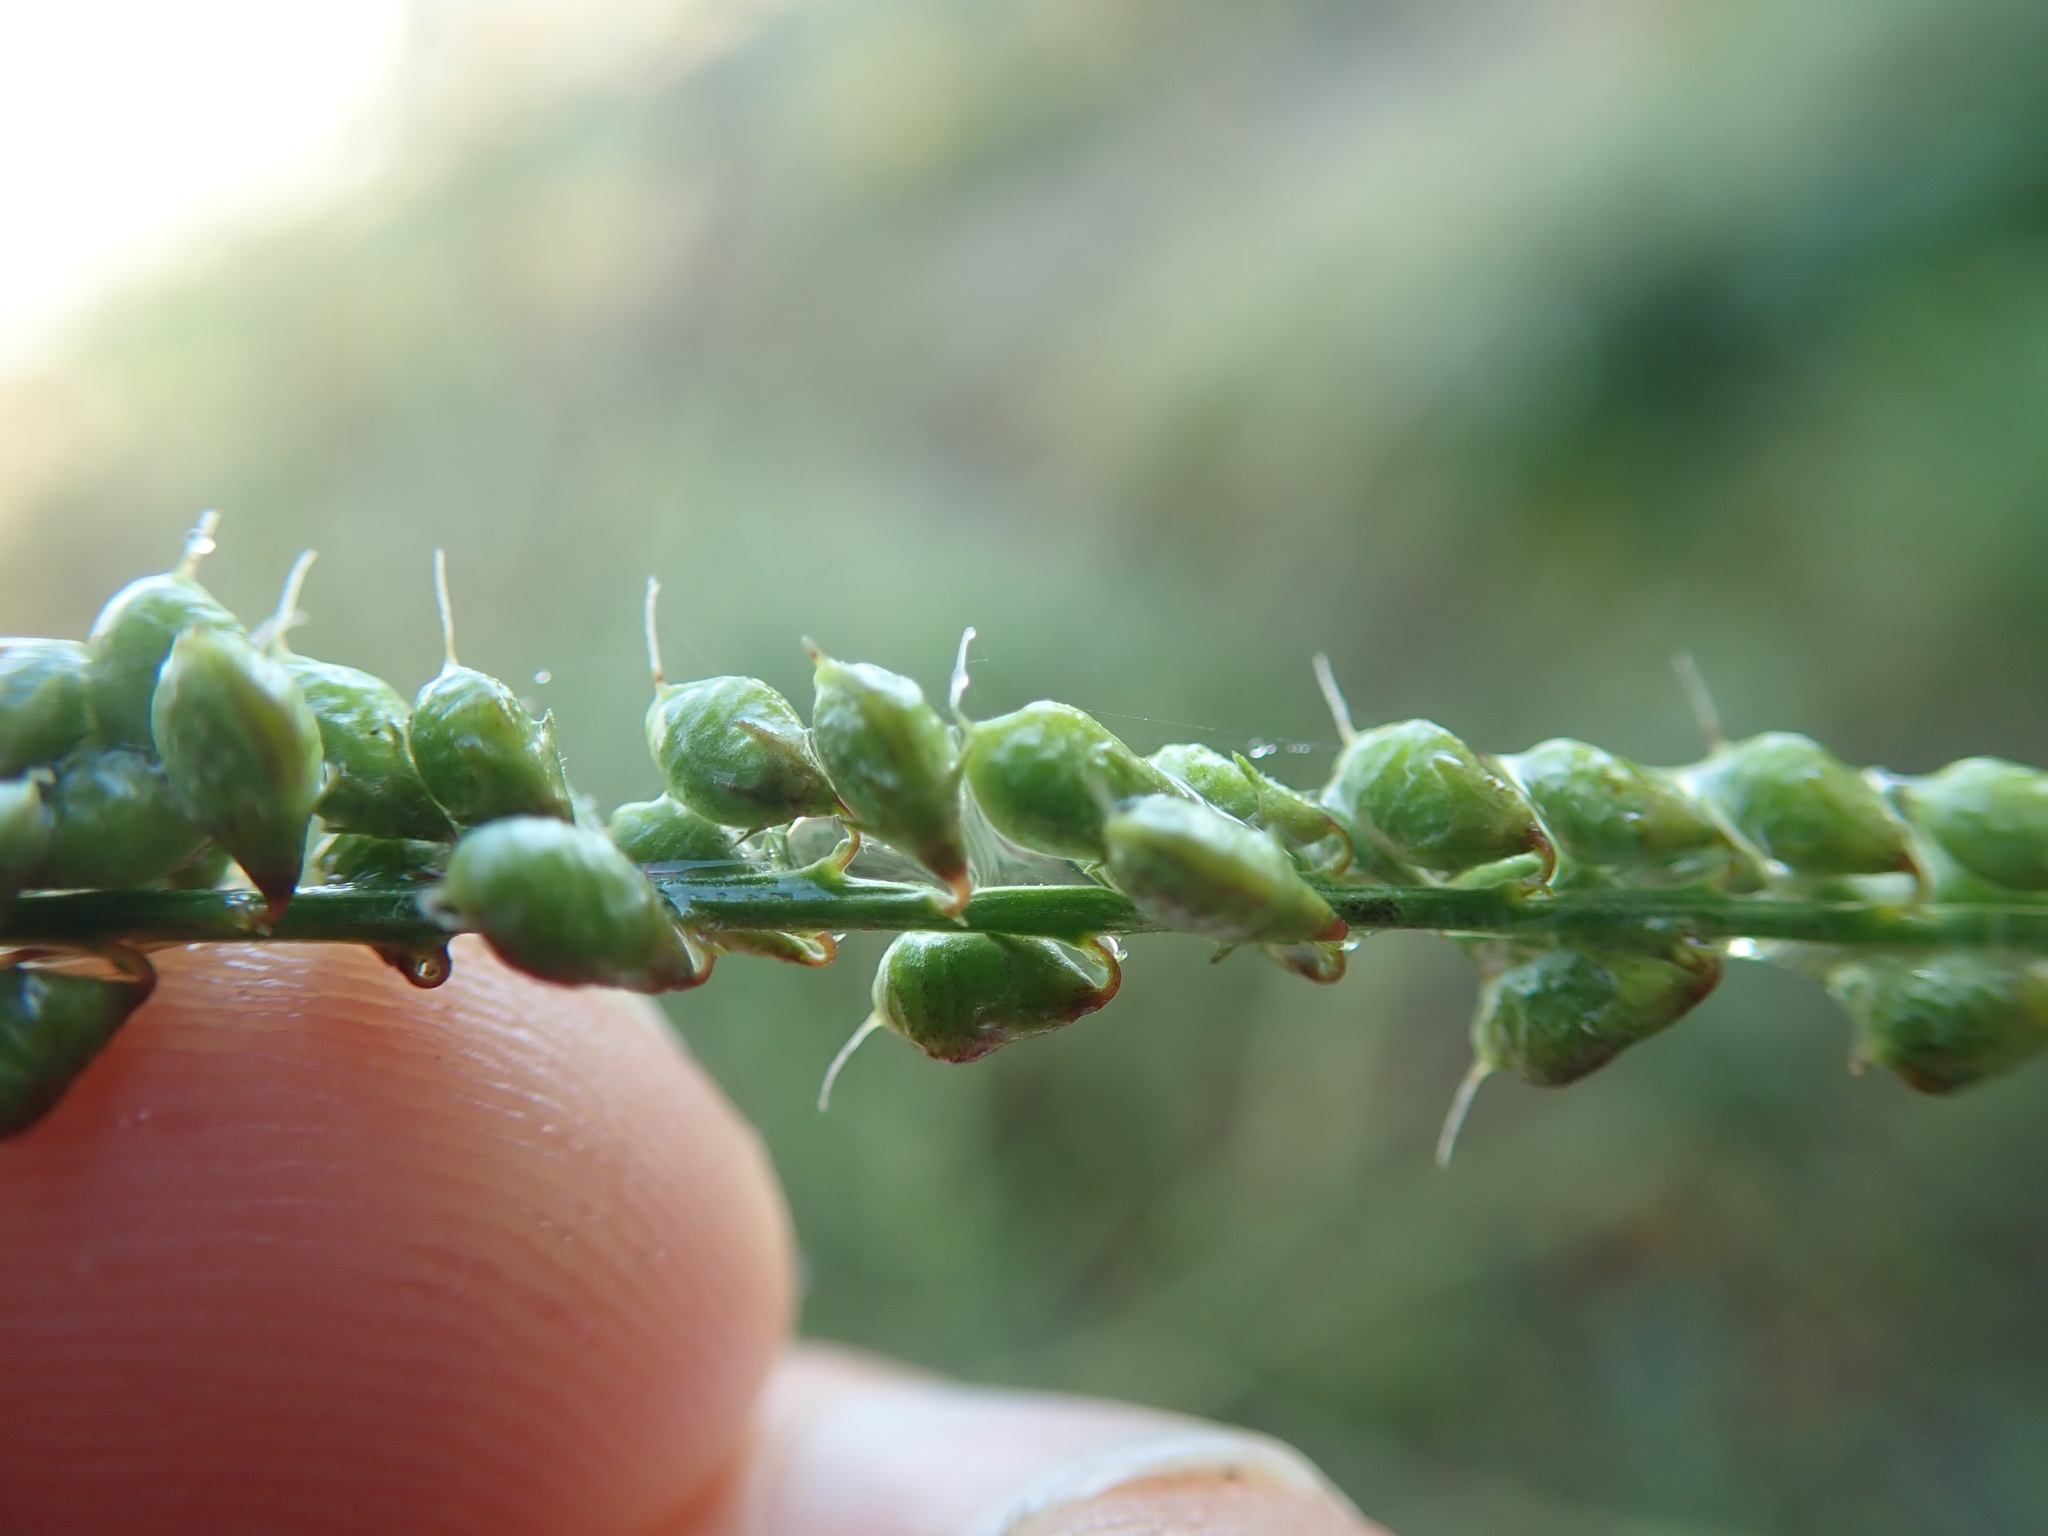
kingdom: Plantae
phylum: Tracheophyta
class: Magnoliopsida
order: Fabales
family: Fabaceae
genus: Melilotus
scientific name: Melilotus albus
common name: White melilot
